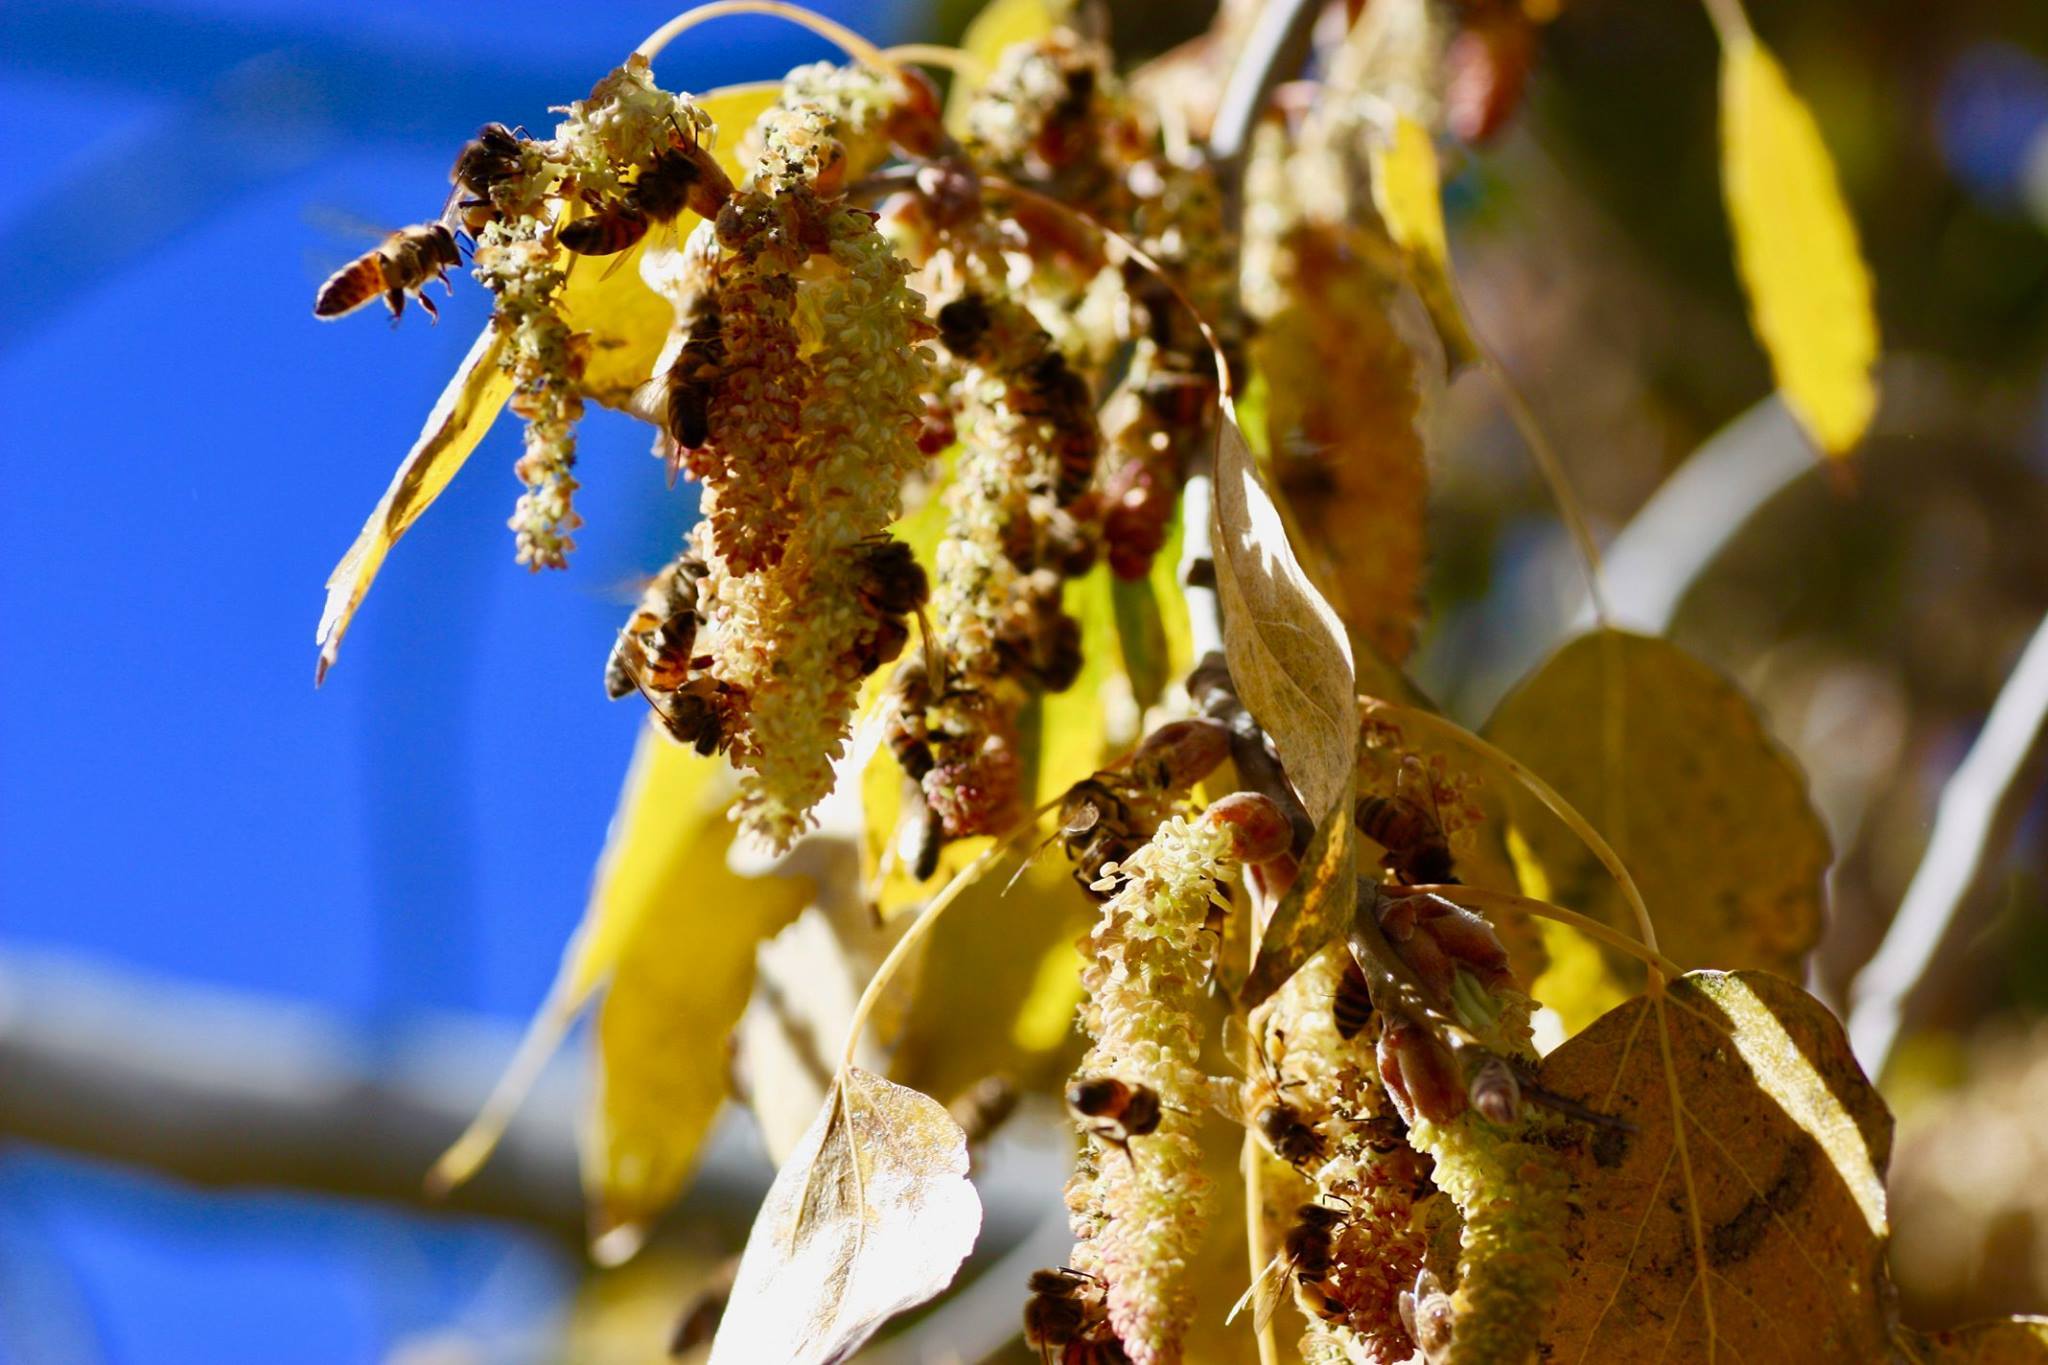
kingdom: Animalia
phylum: Arthropoda
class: Insecta
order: Hymenoptera
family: Apidae
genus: Apis
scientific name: Apis mellifera
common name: Honey bee
